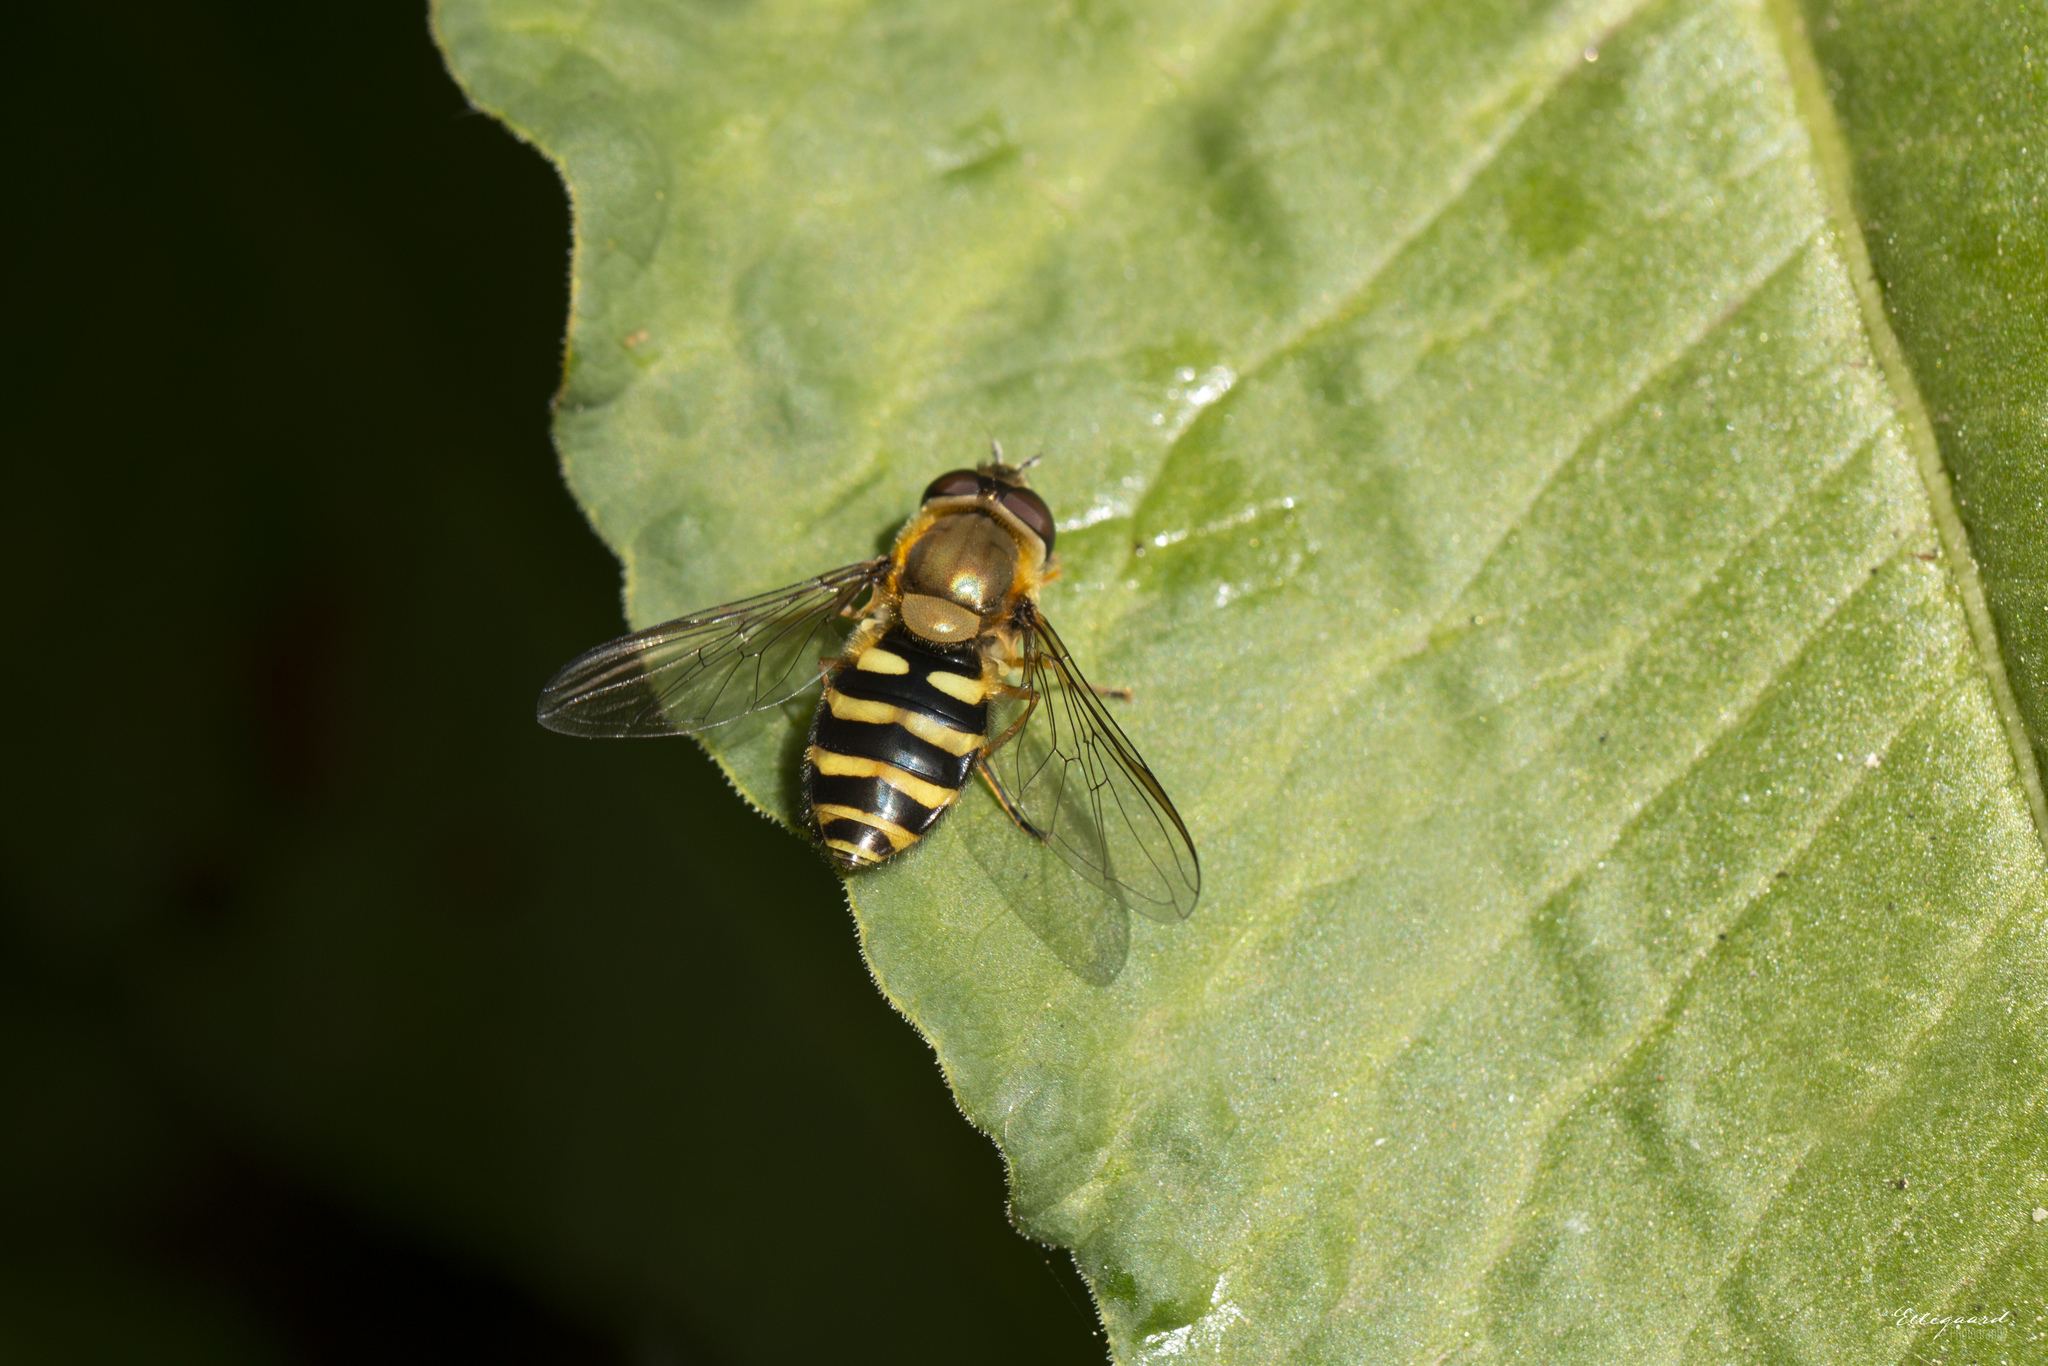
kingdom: Animalia
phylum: Arthropoda
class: Insecta
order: Diptera
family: Syrphidae
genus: Syrphus
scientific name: Syrphus
